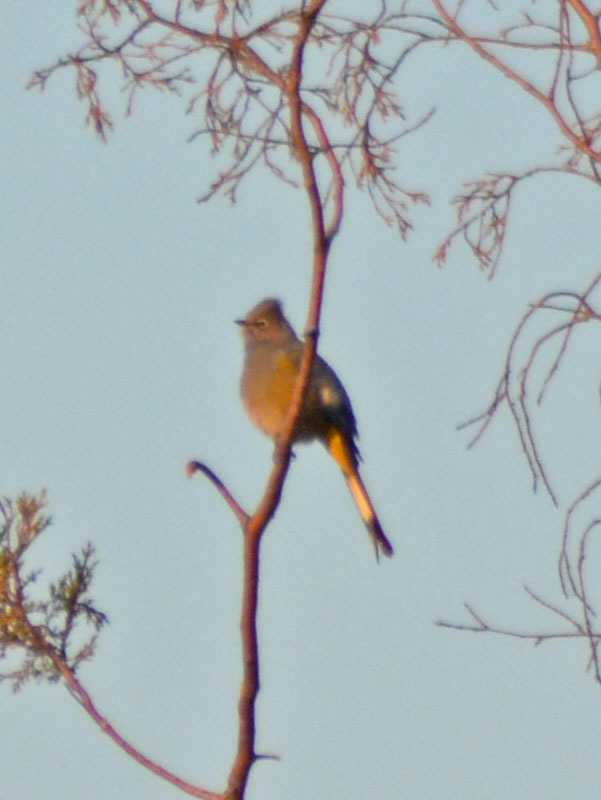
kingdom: Animalia
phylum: Chordata
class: Aves
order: Passeriformes
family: Ptilogonatidae
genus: Ptilogonys
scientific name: Ptilogonys cinereus
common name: Gray silky-flycatcher
